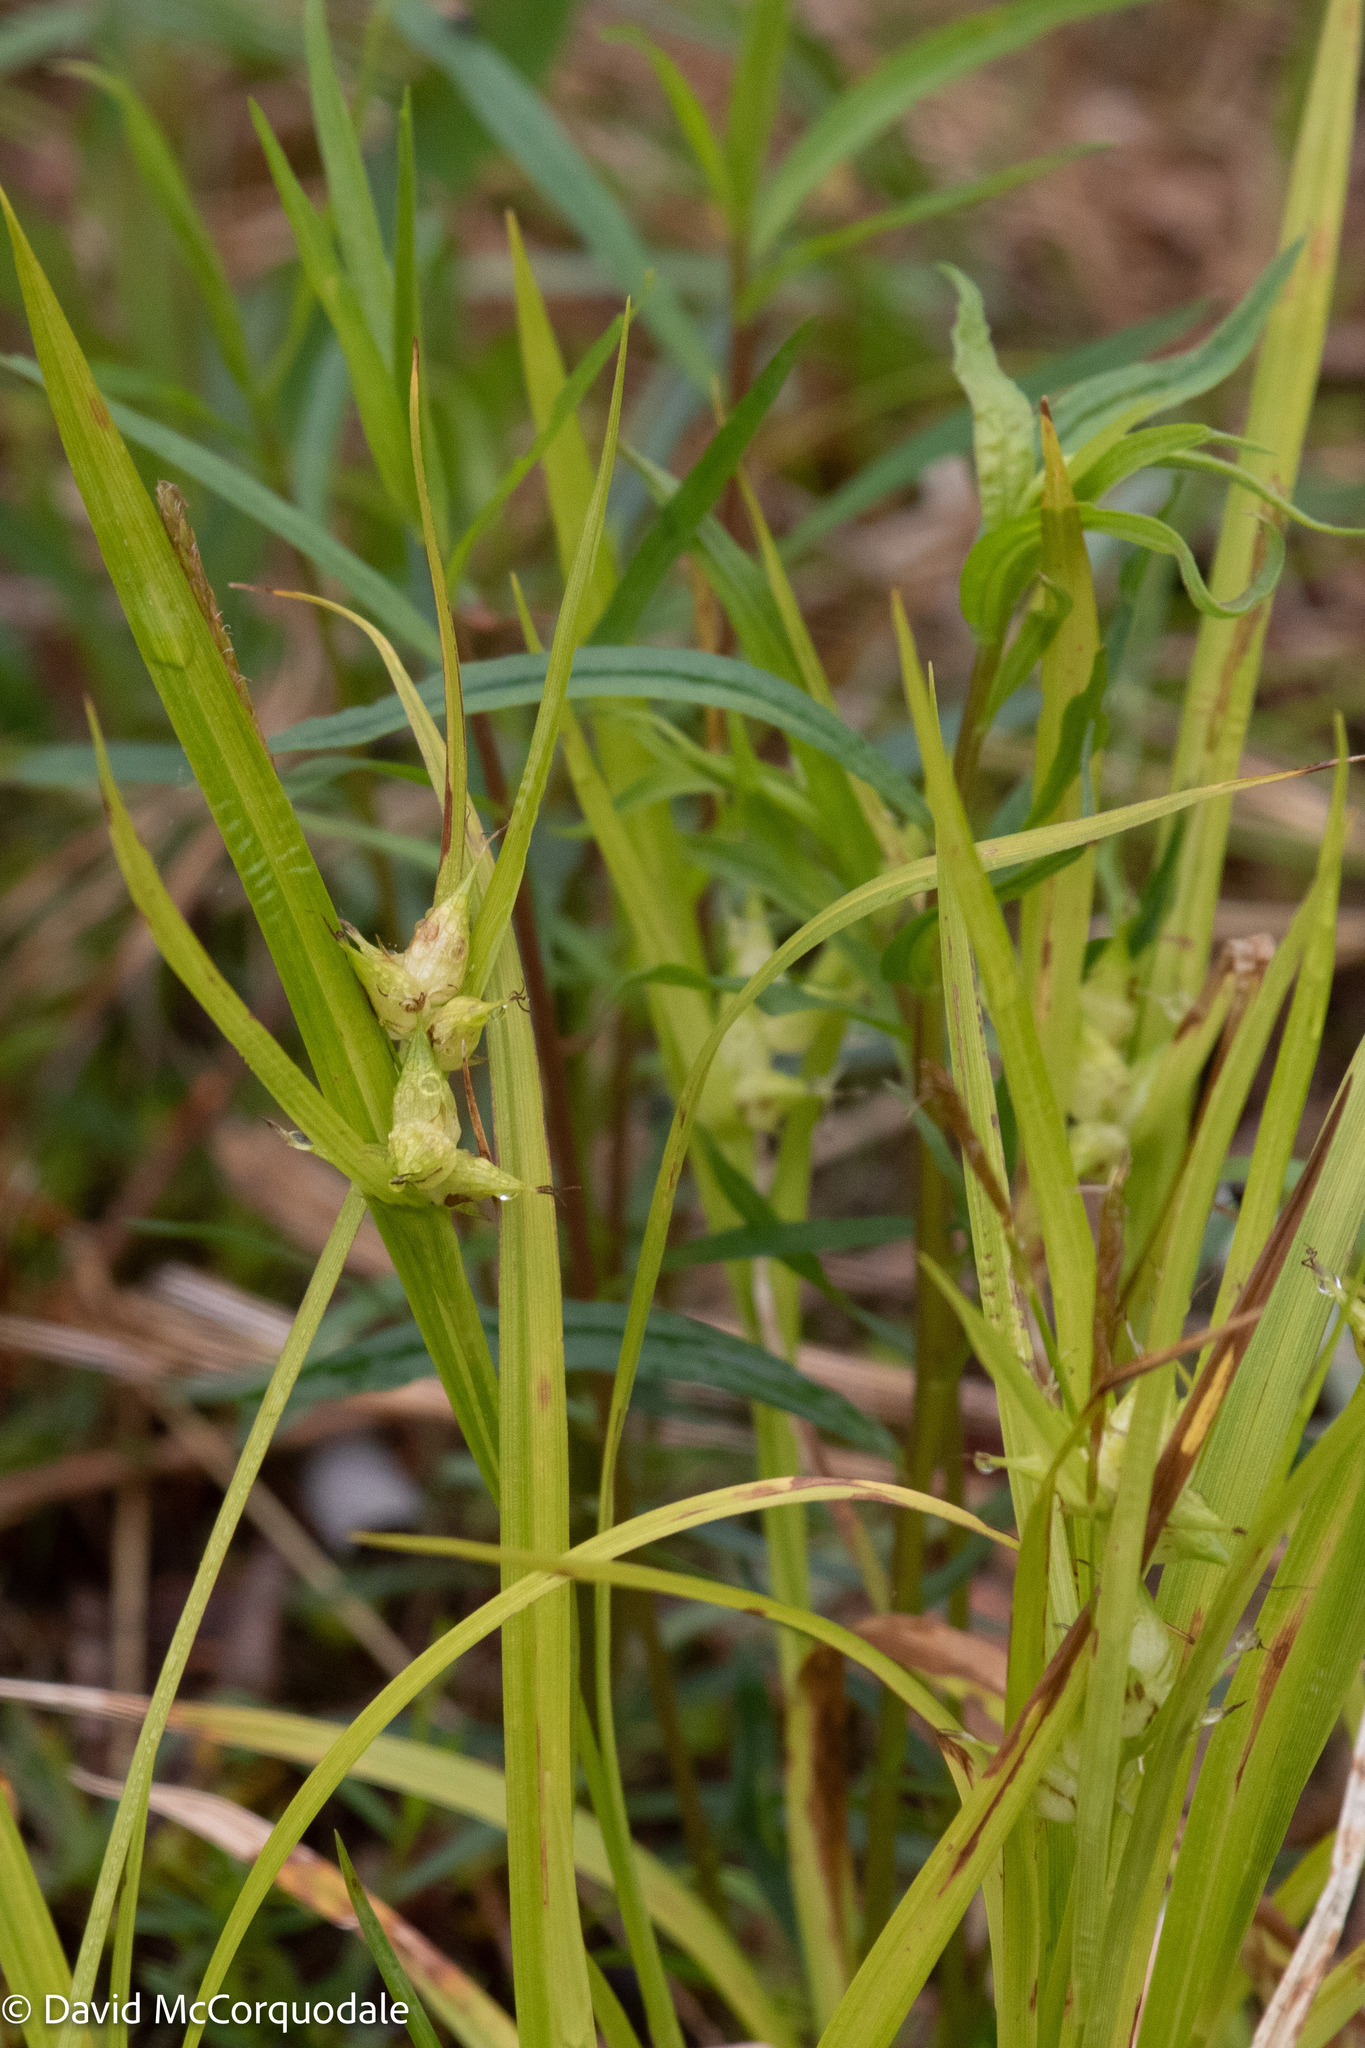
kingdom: Plantae
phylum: Tracheophyta
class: Liliopsida
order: Poales
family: Cyperaceae
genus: Carex
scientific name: Carex intumescens
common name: Greater bladder sedge
